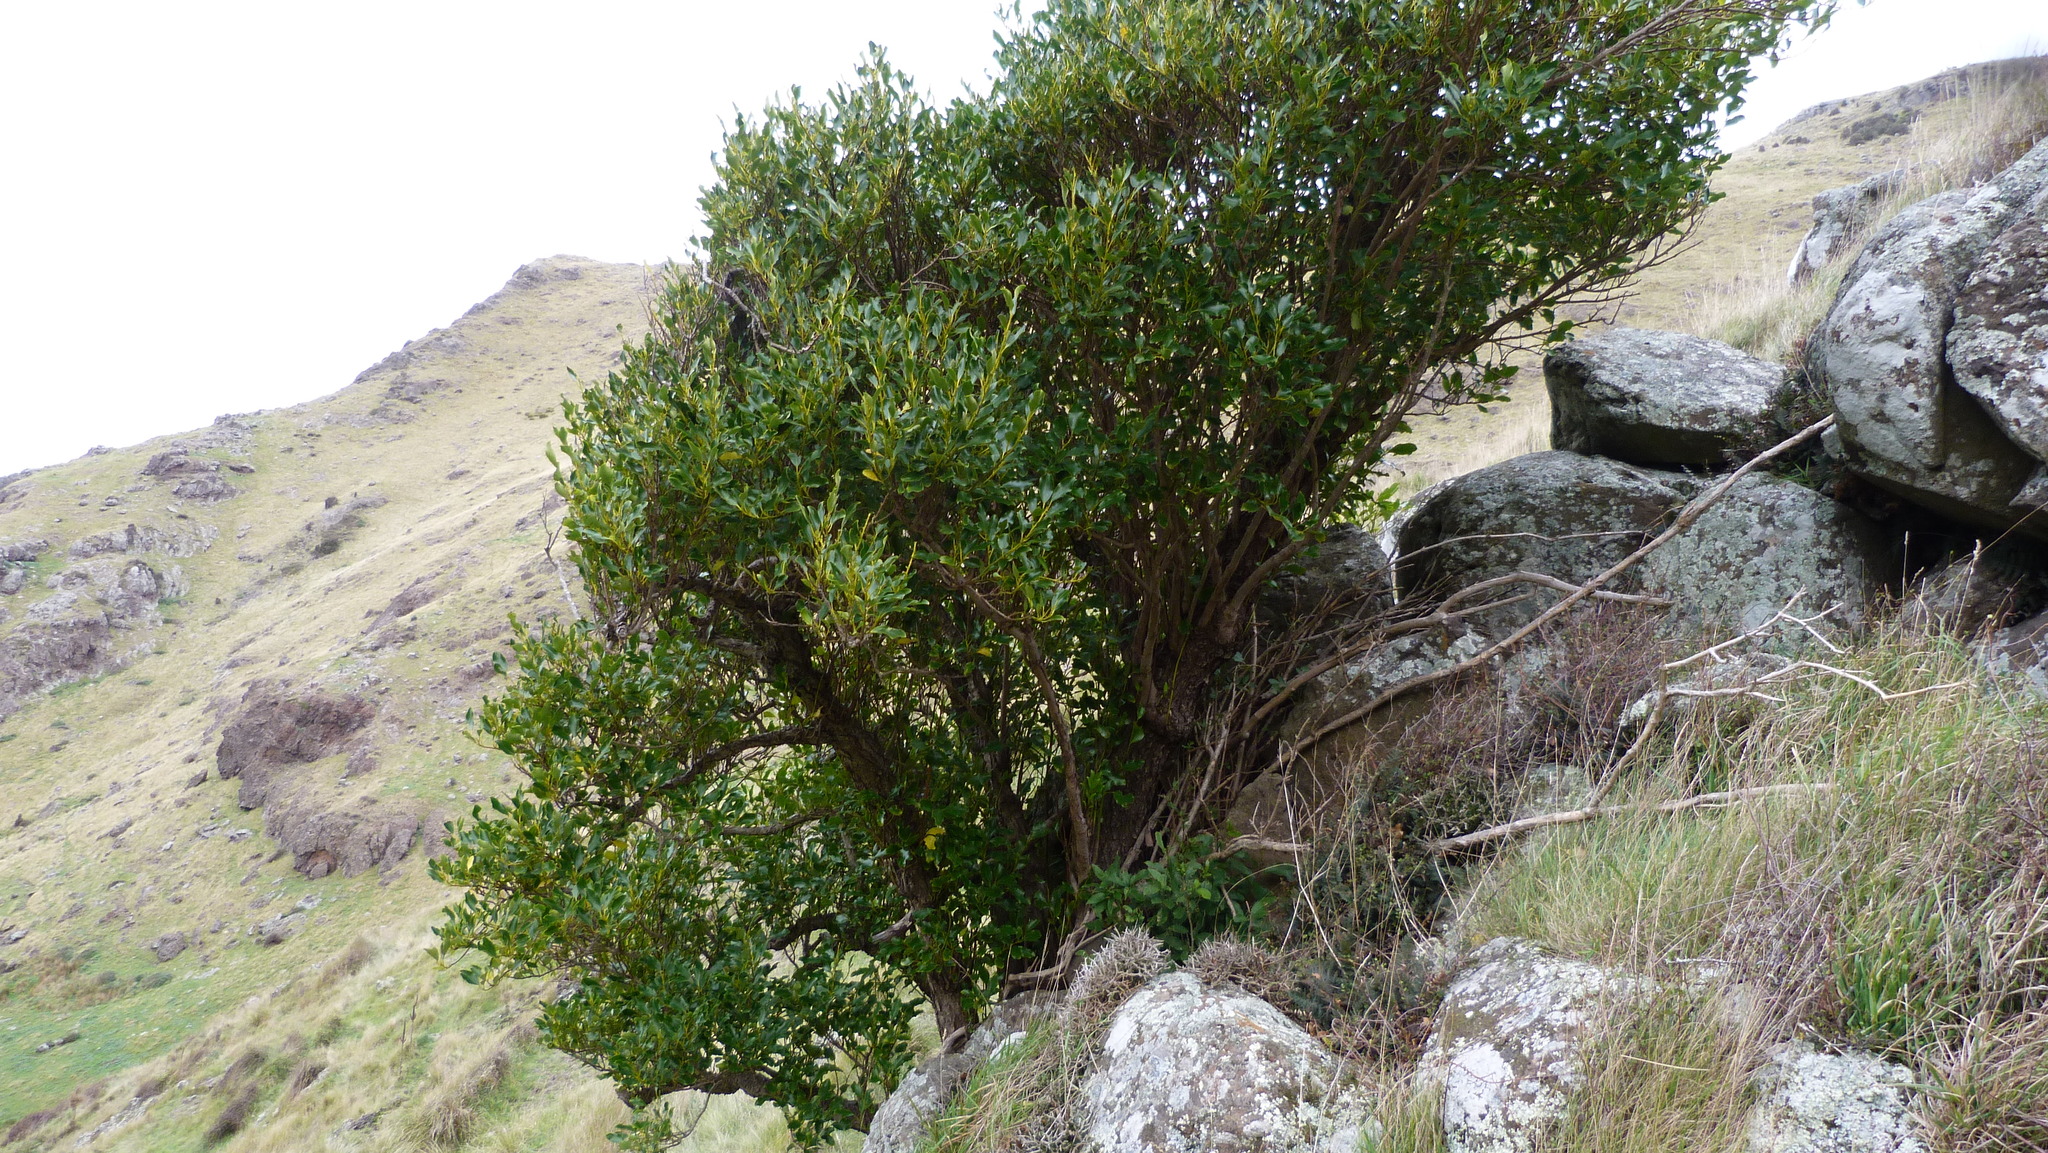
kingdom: Plantae
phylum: Tracheophyta
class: Magnoliopsida
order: Apiales
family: Griseliniaceae
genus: Griselinia
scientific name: Griselinia littoralis
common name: New zealand broadleaf
